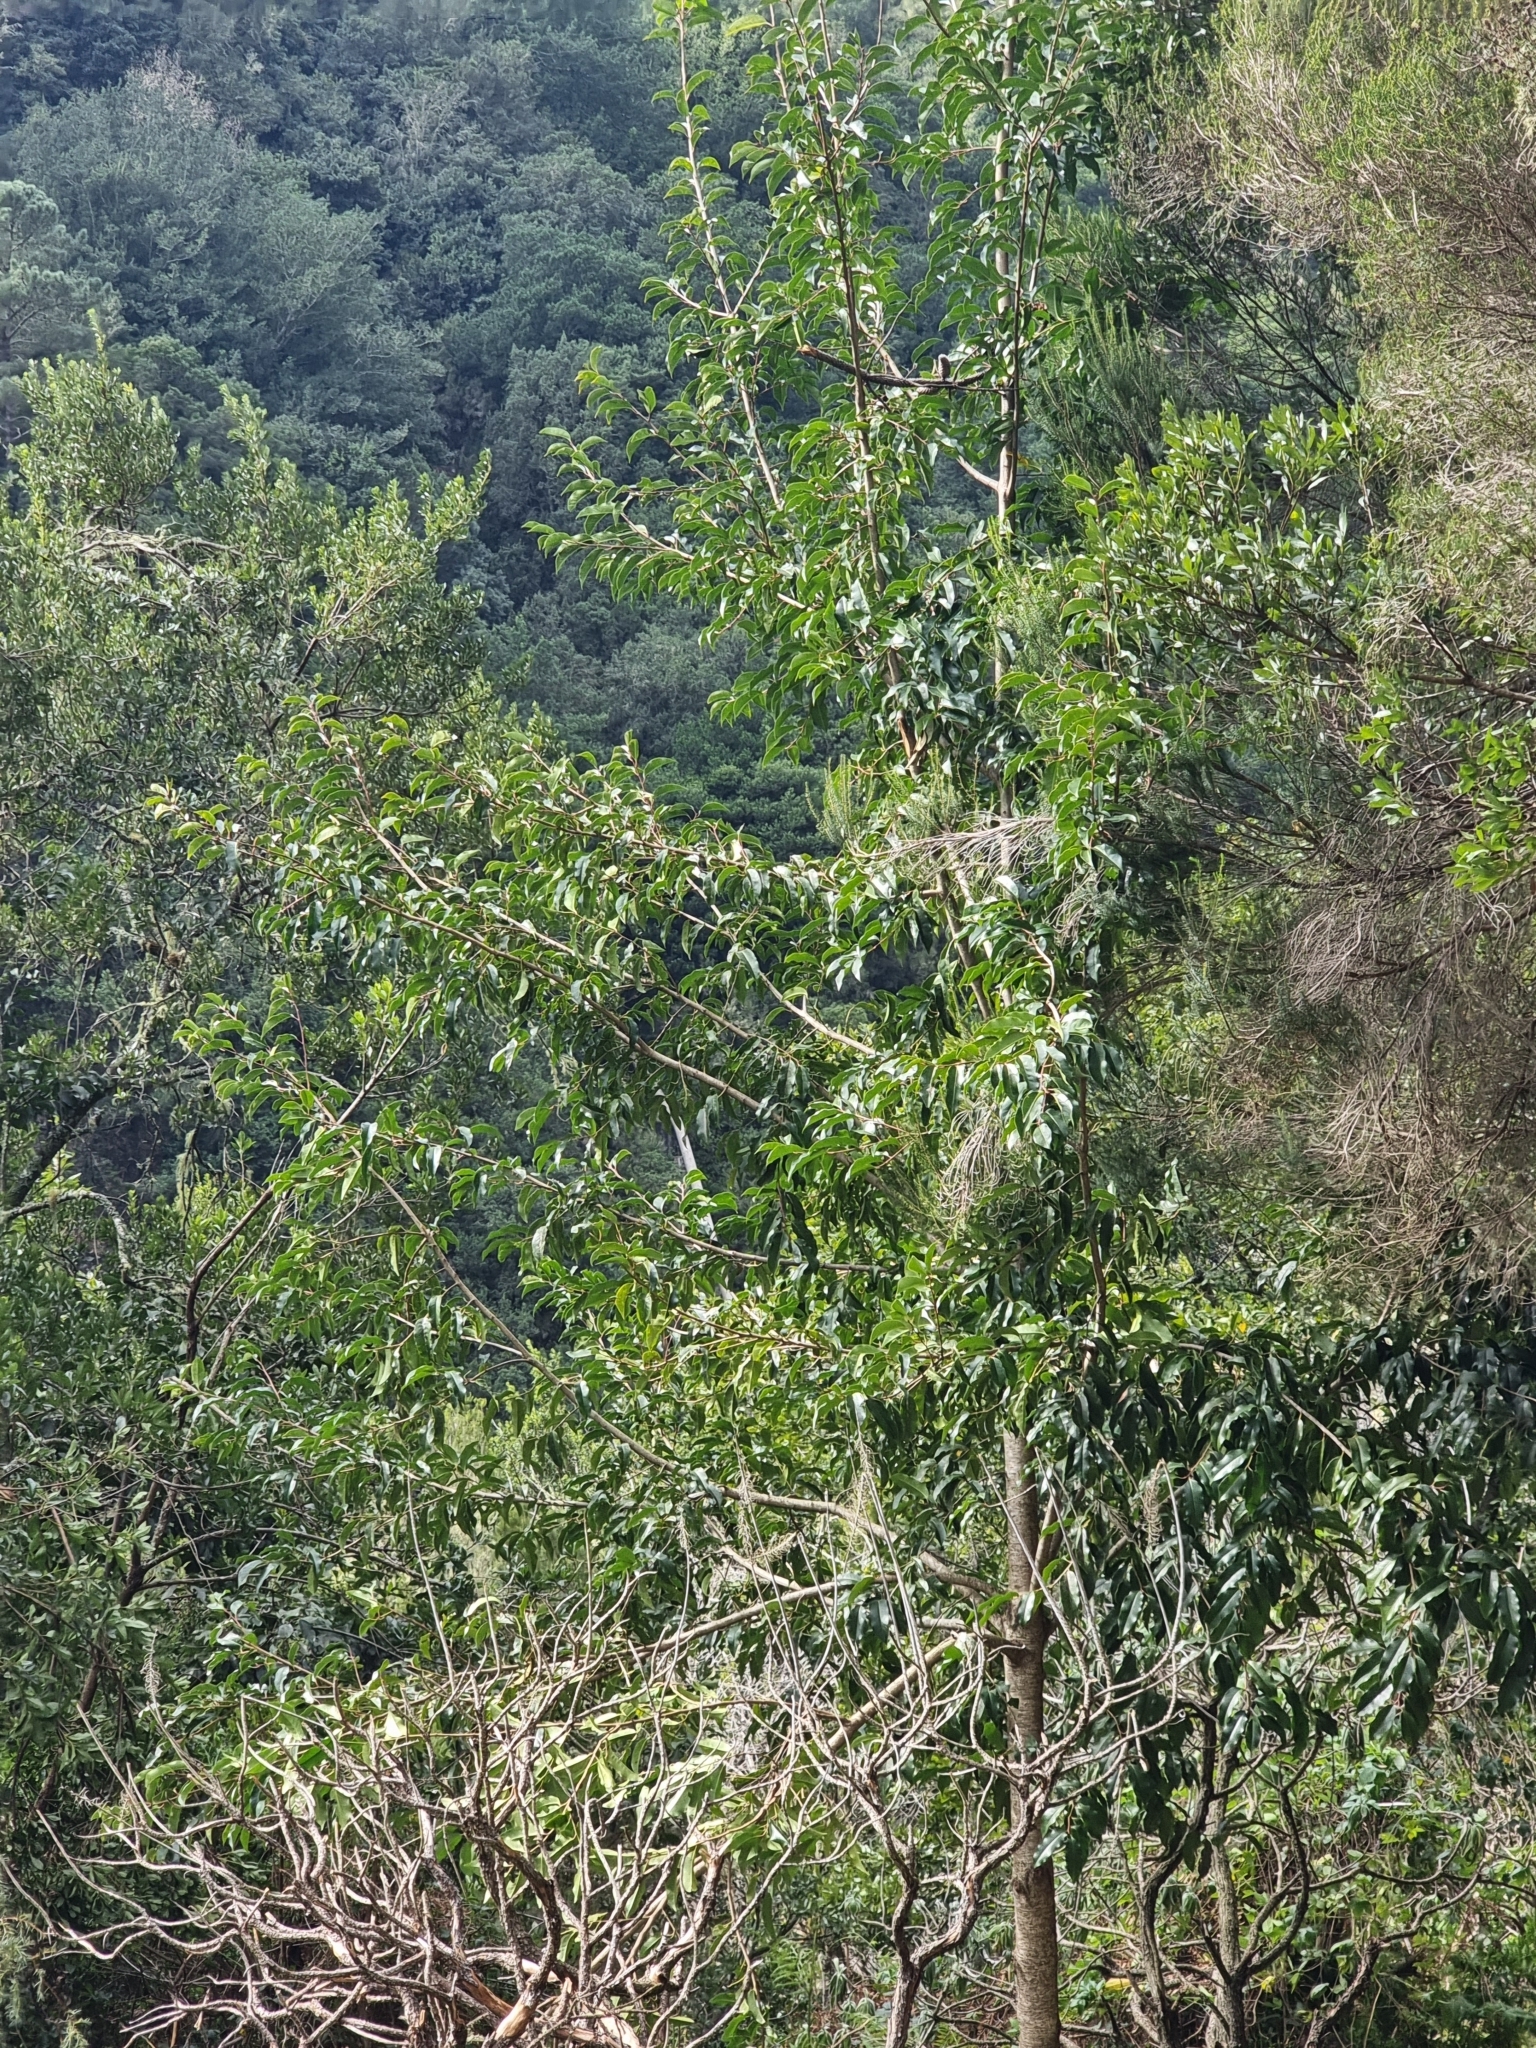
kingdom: Plantae
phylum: Tracheophyta
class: Magnoliopsida
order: Rosales
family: Rosaceae
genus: Prunus
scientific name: Prunus hixa
